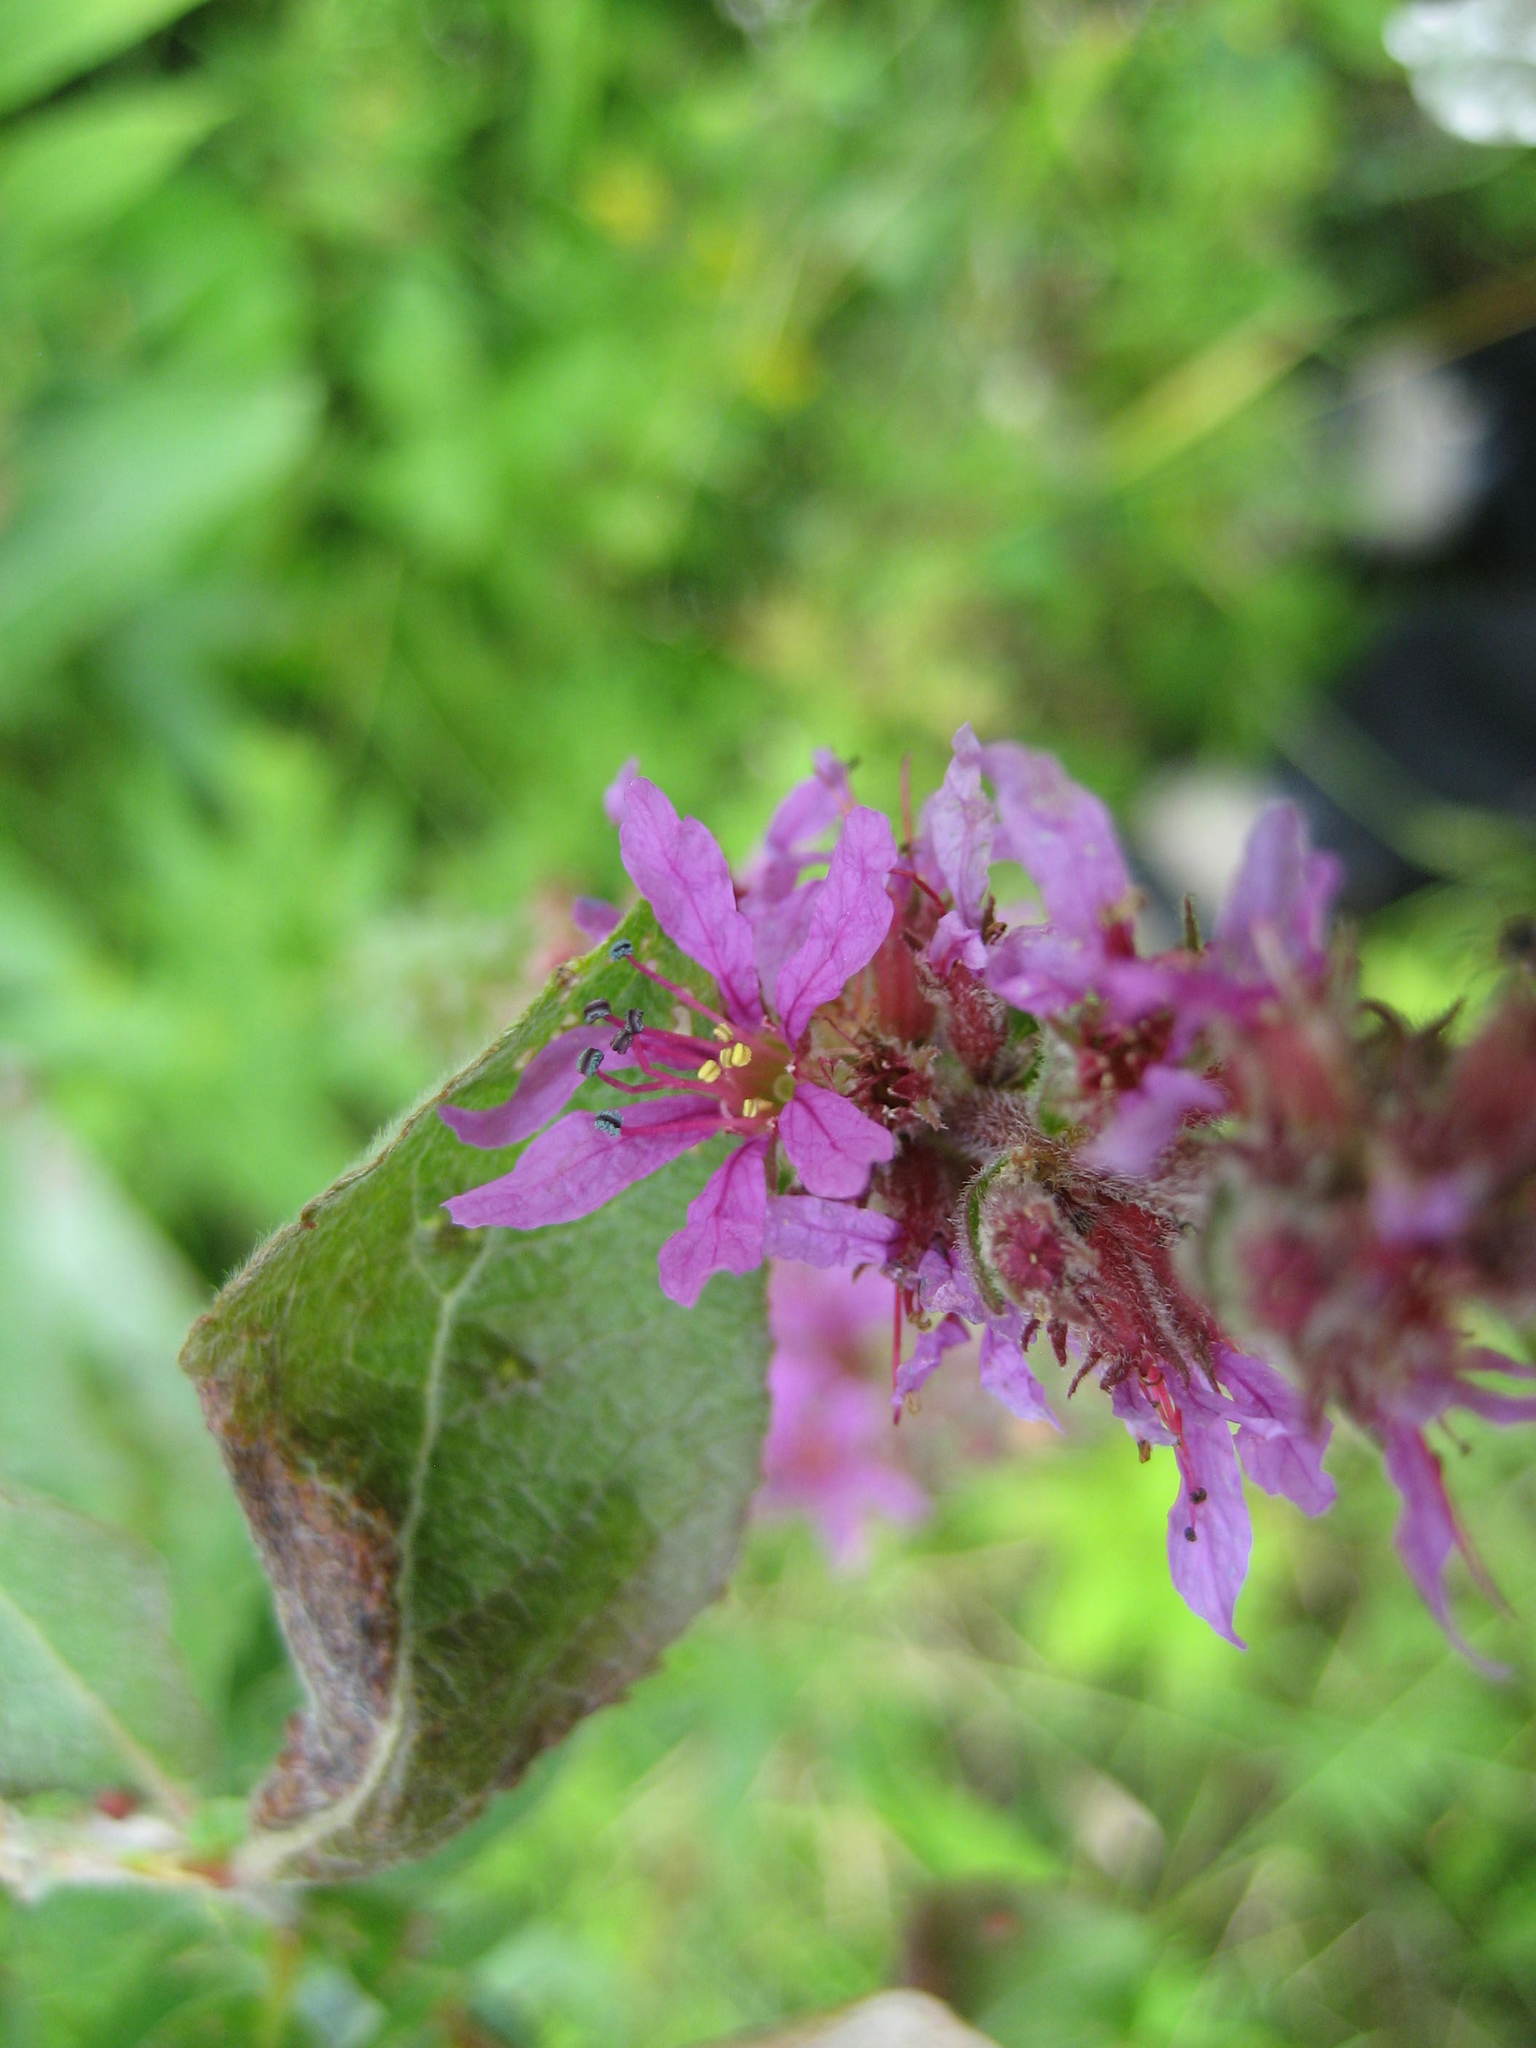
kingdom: Plantae
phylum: Tracheophyta
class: Magnoliopsida
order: Myrtales
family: Lythraceae
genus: Lythrum
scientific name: Lythrum salicaria
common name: Purple loosestrife
